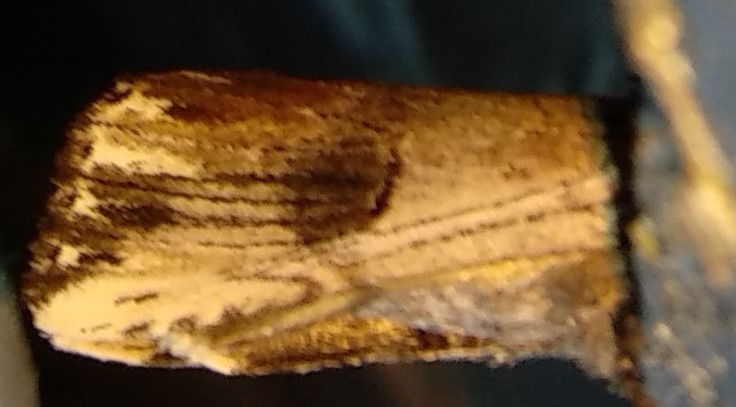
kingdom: Animalia
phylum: Arthropoda
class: Insecta
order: Lepidoptera
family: Notodontidae
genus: Schizura
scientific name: Schizura badia
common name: Chestnut schizura
